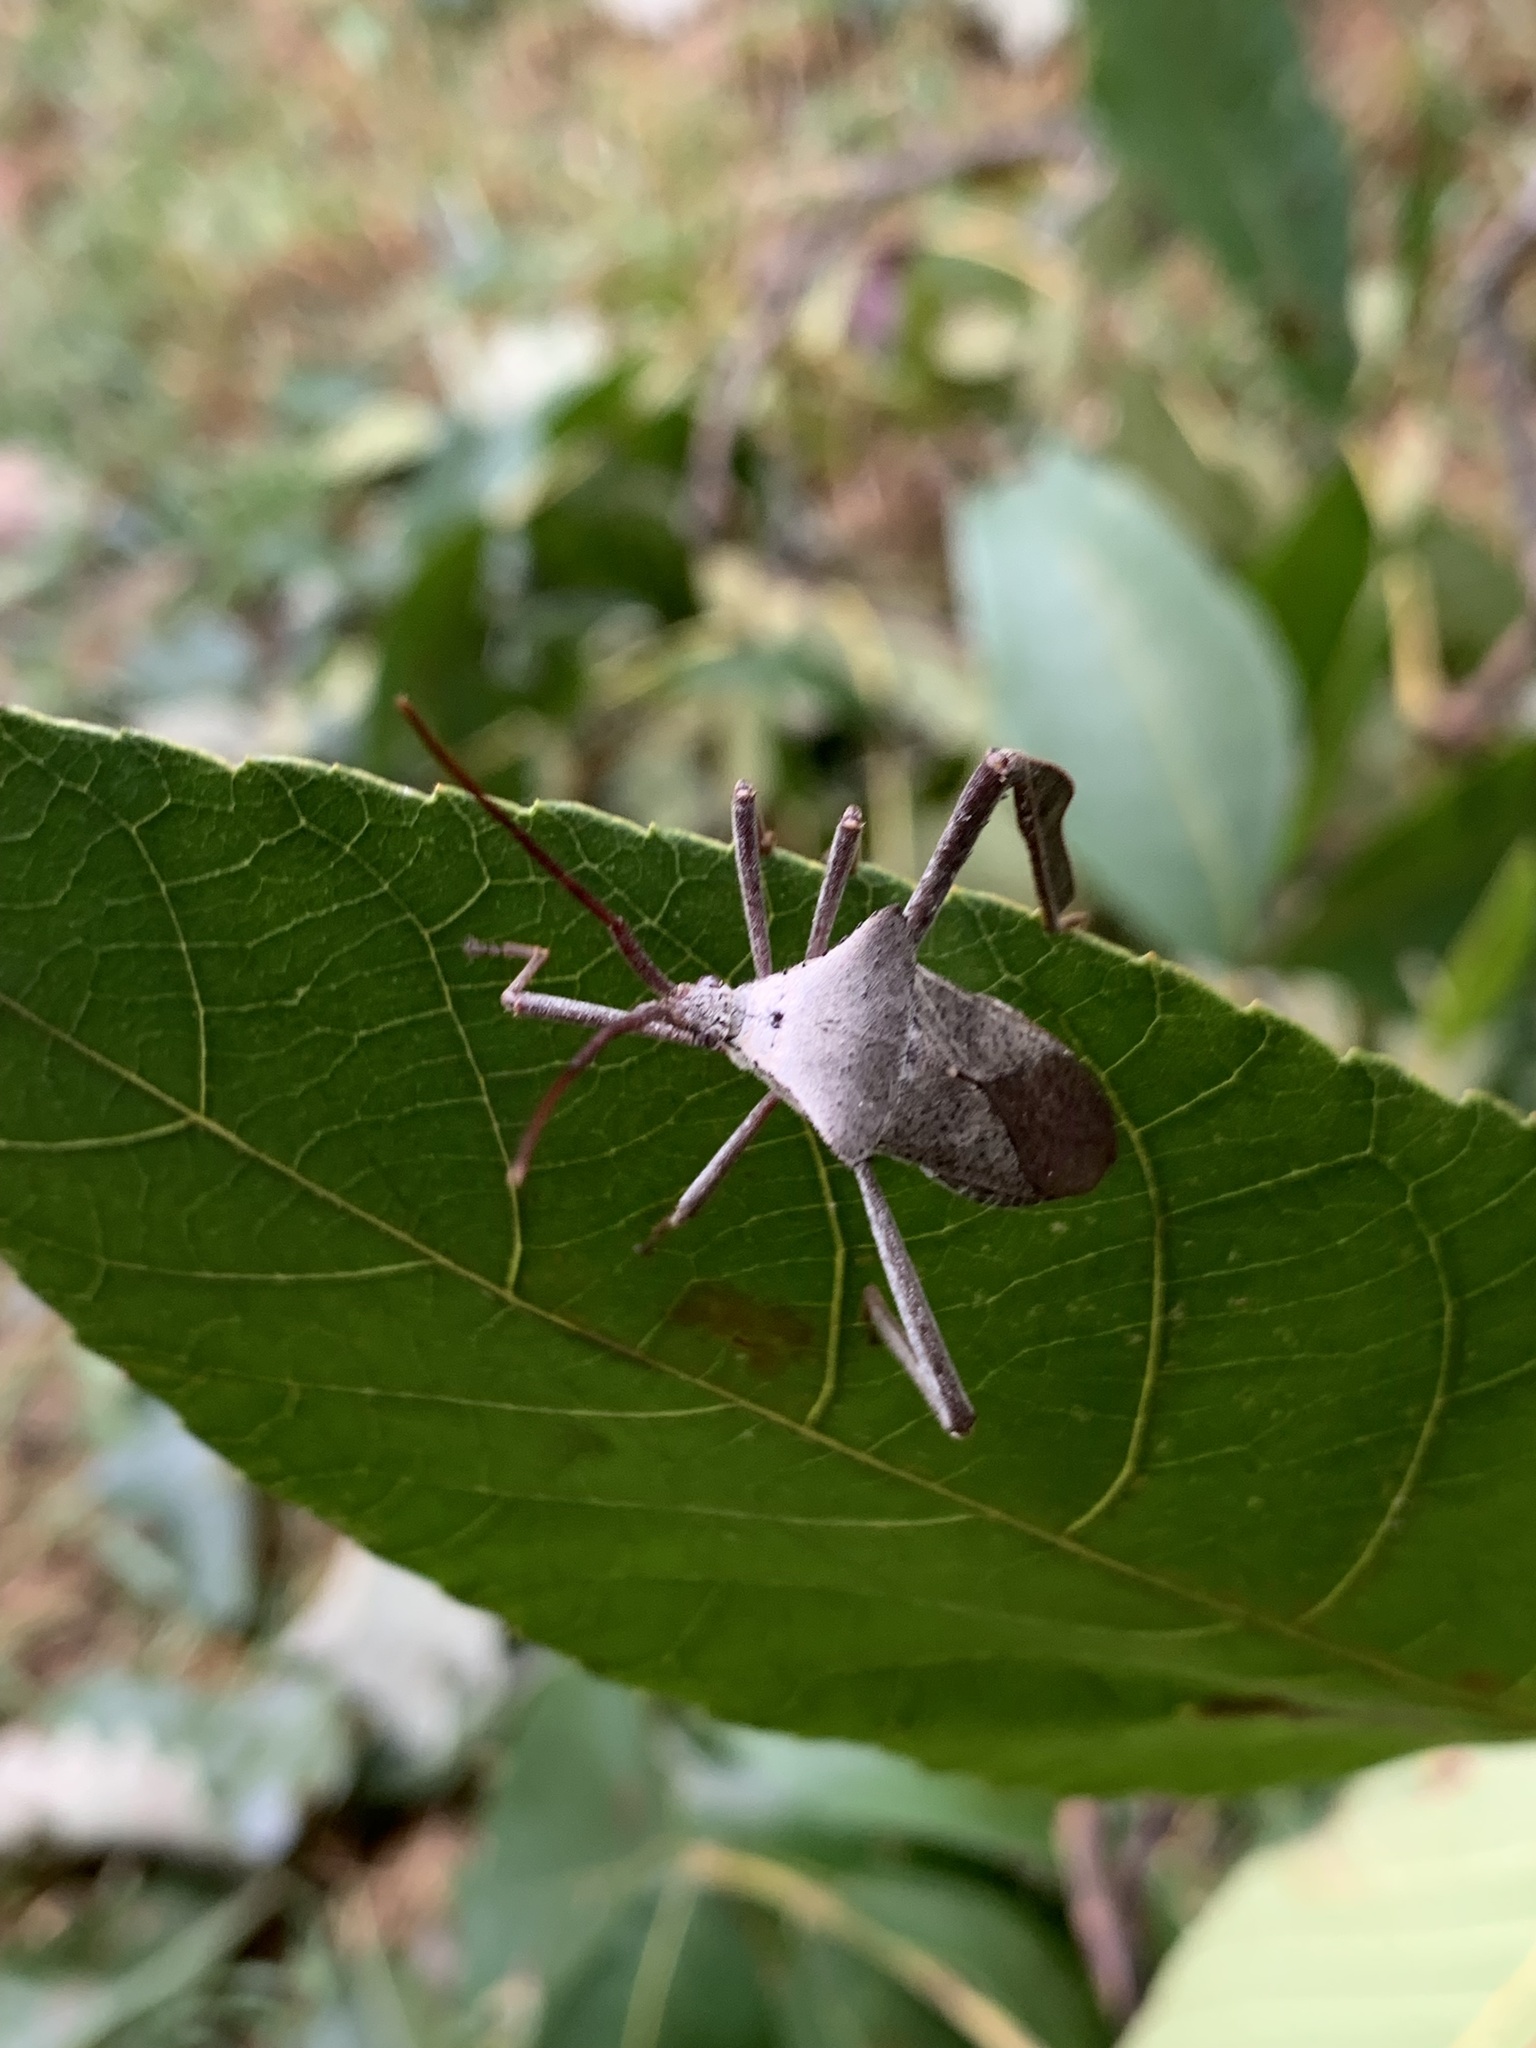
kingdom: Animalia
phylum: Arthropoda
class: Insecta
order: Hemiptera
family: Coreidae
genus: Acanthocephala
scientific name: Acanthocephala declivis
